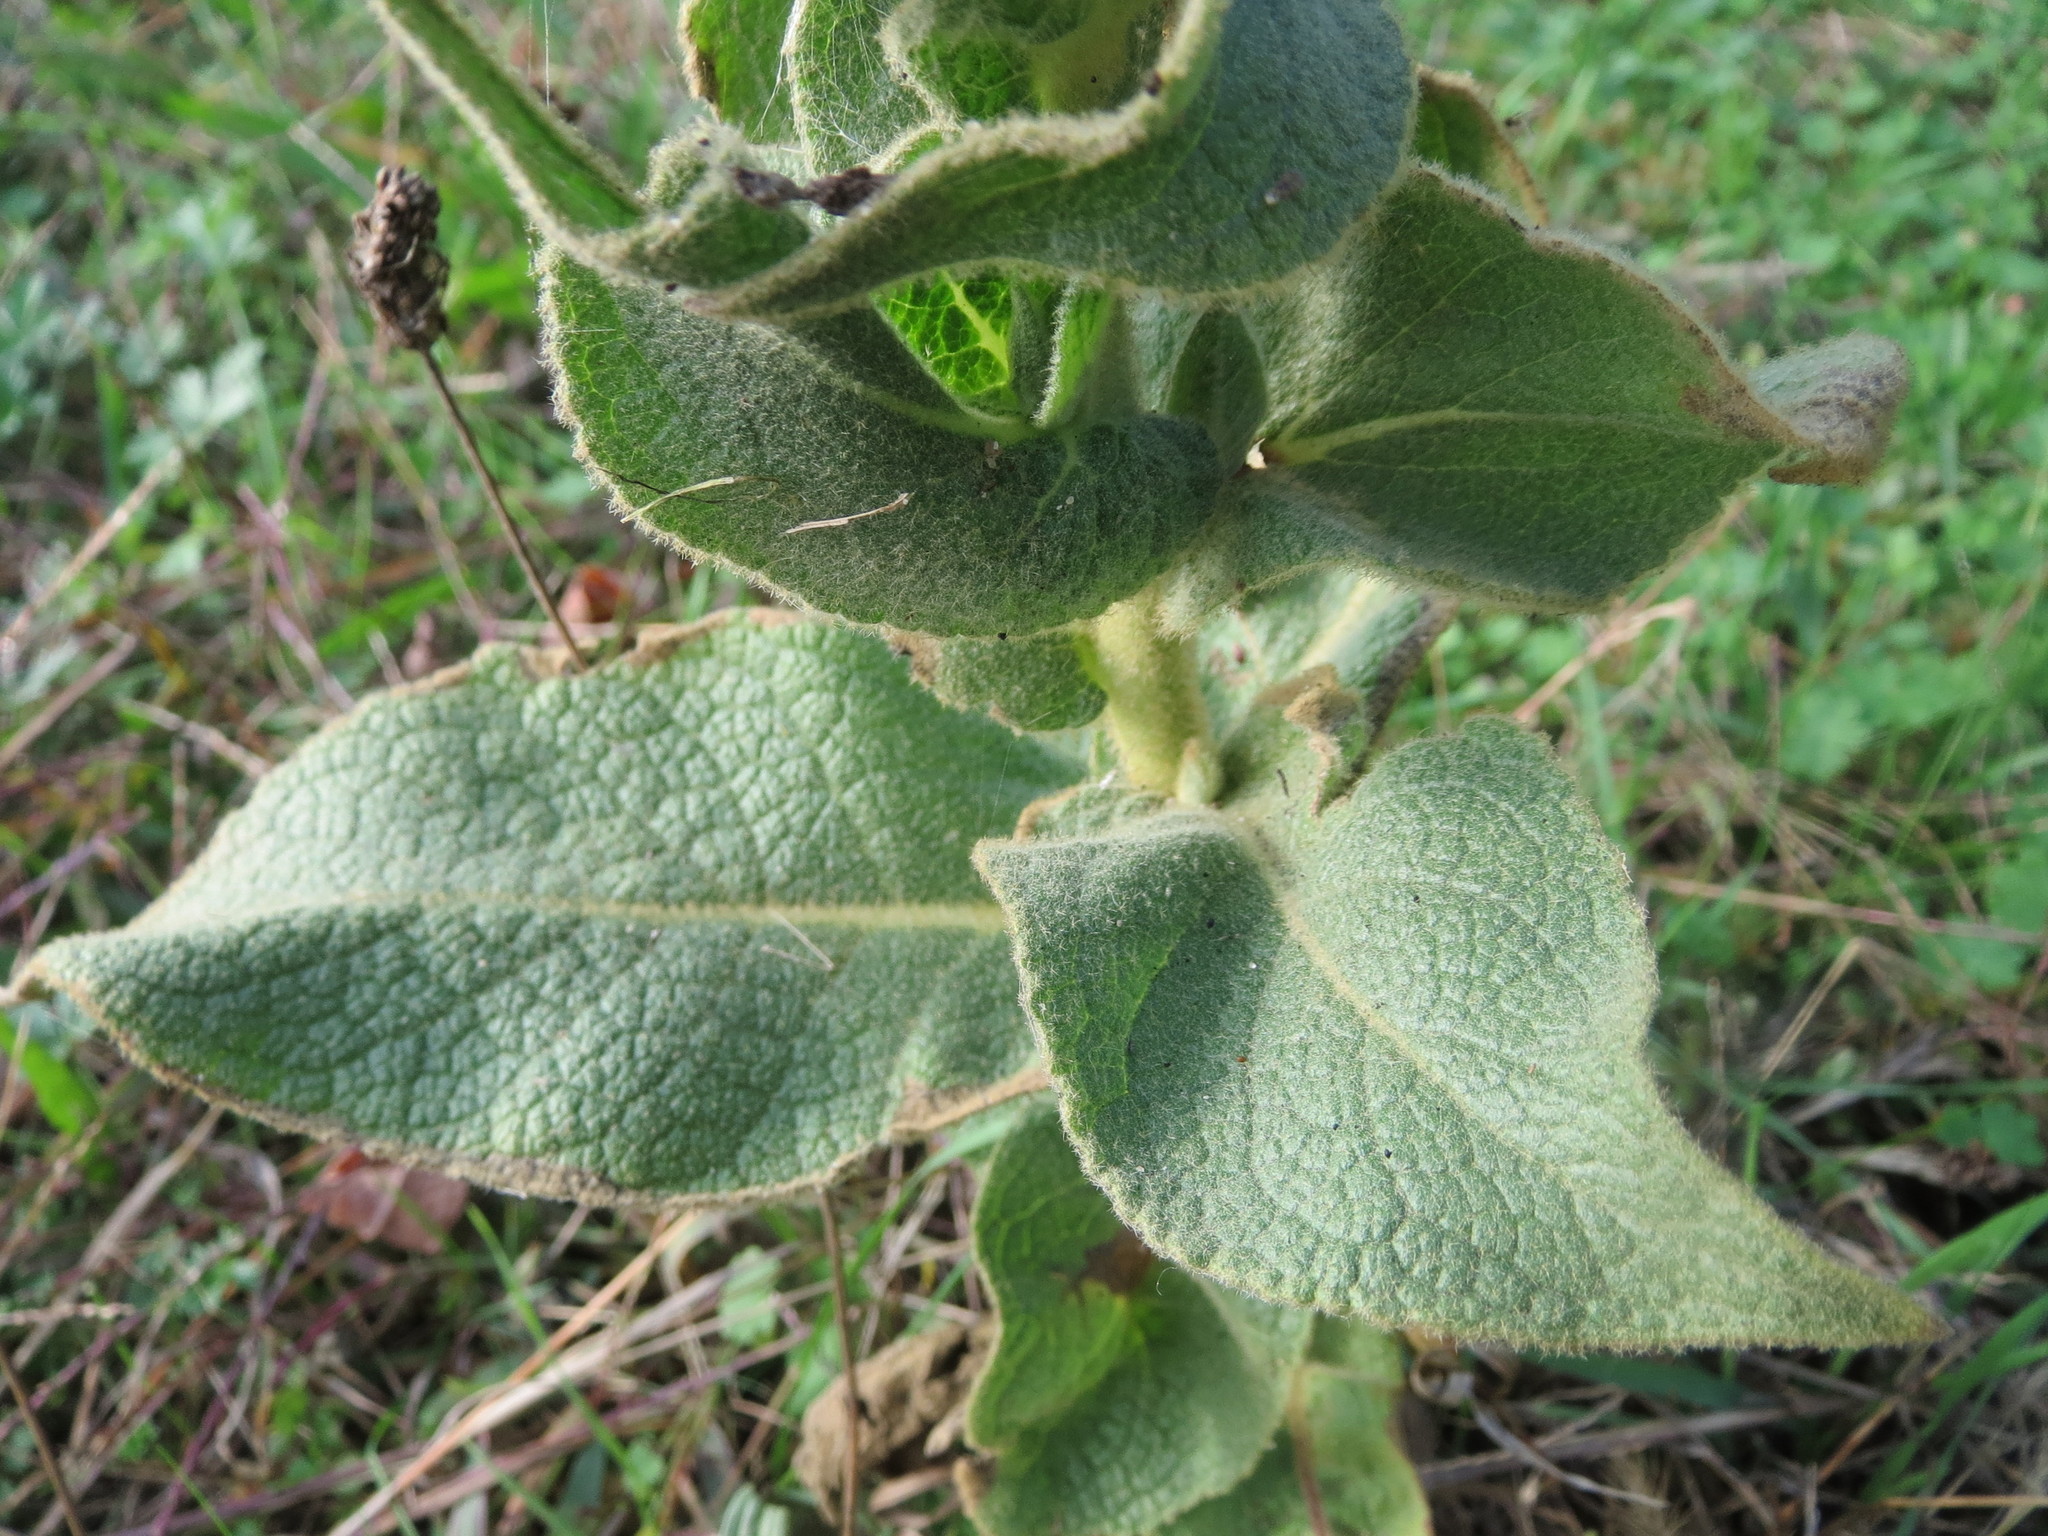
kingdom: Plantae
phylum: Tracheophyta
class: Magnoliopsida
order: Lamiales
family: Scrophulariaceae
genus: Verbascum
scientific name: Verbascum phlomoides
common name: Orange mullein
